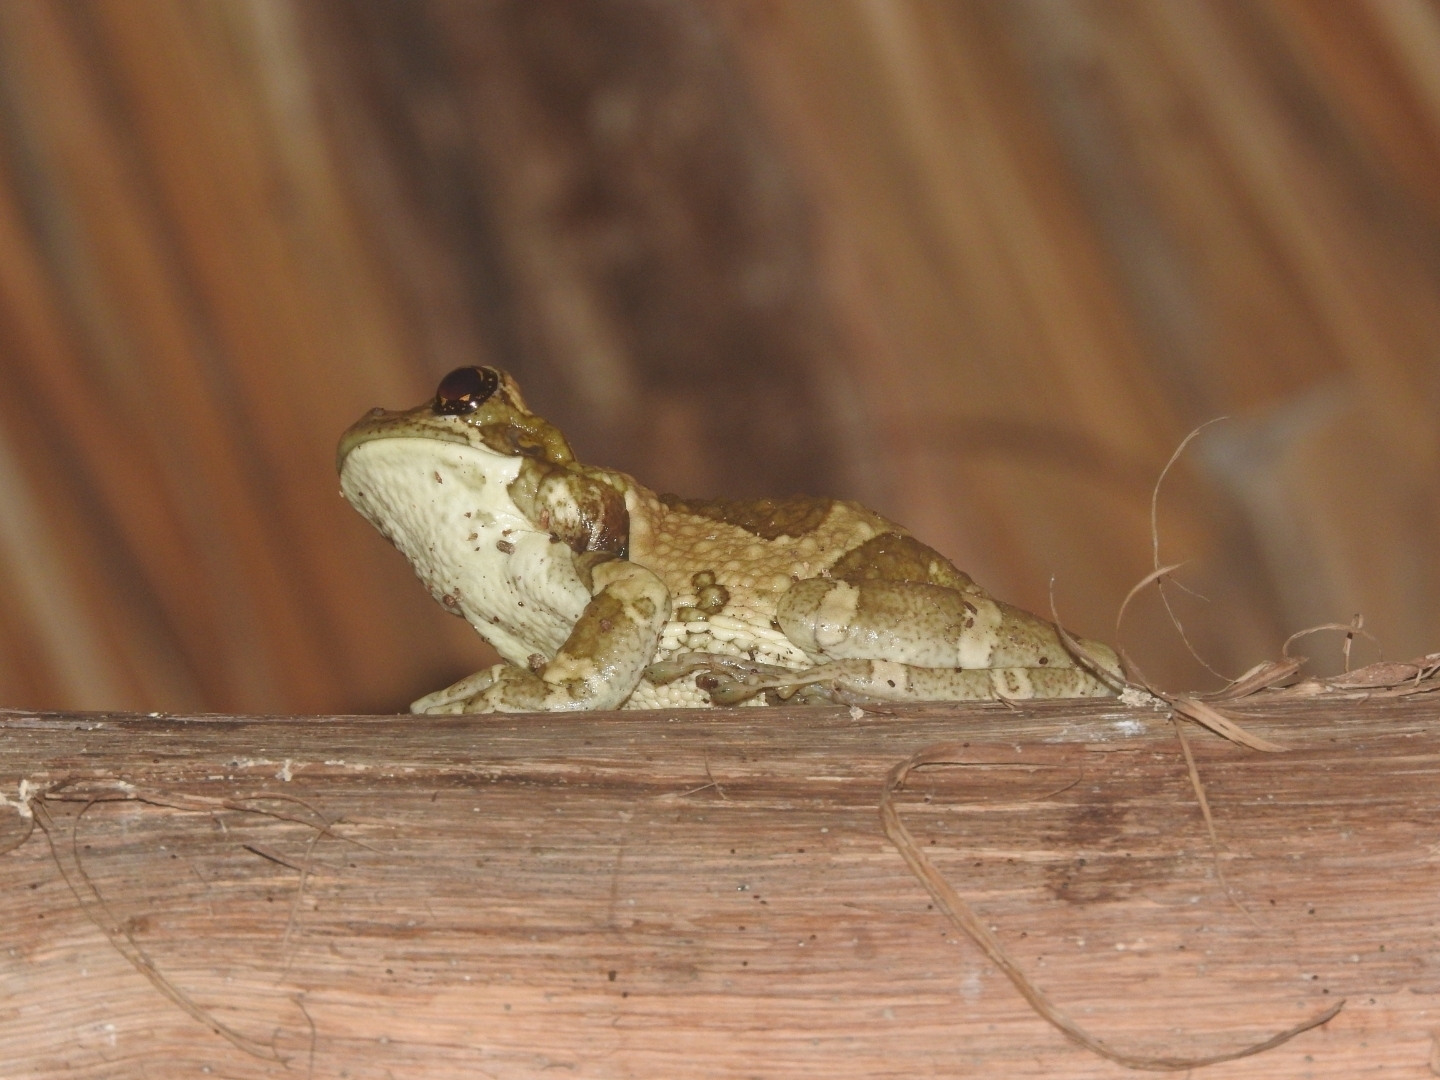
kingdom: Animalia
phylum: Chordata
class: Amphibia
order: Anura
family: Hylidae
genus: Trachycephalus
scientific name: Trachycephalus vermiculatus
